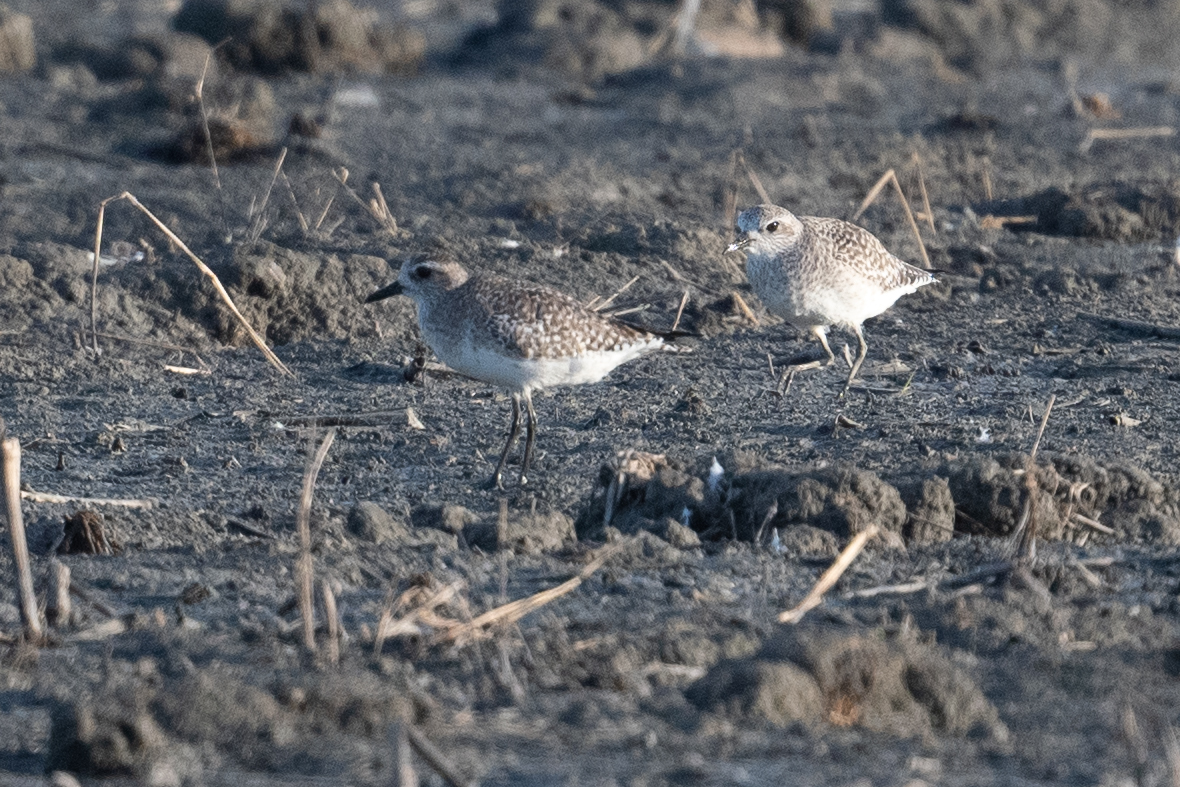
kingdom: Animalia
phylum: Chordata
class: Aves
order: Charadriiformes
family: Charadriidae
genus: Pluvialis
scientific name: Pluvialis squatarola
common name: Grey plover
